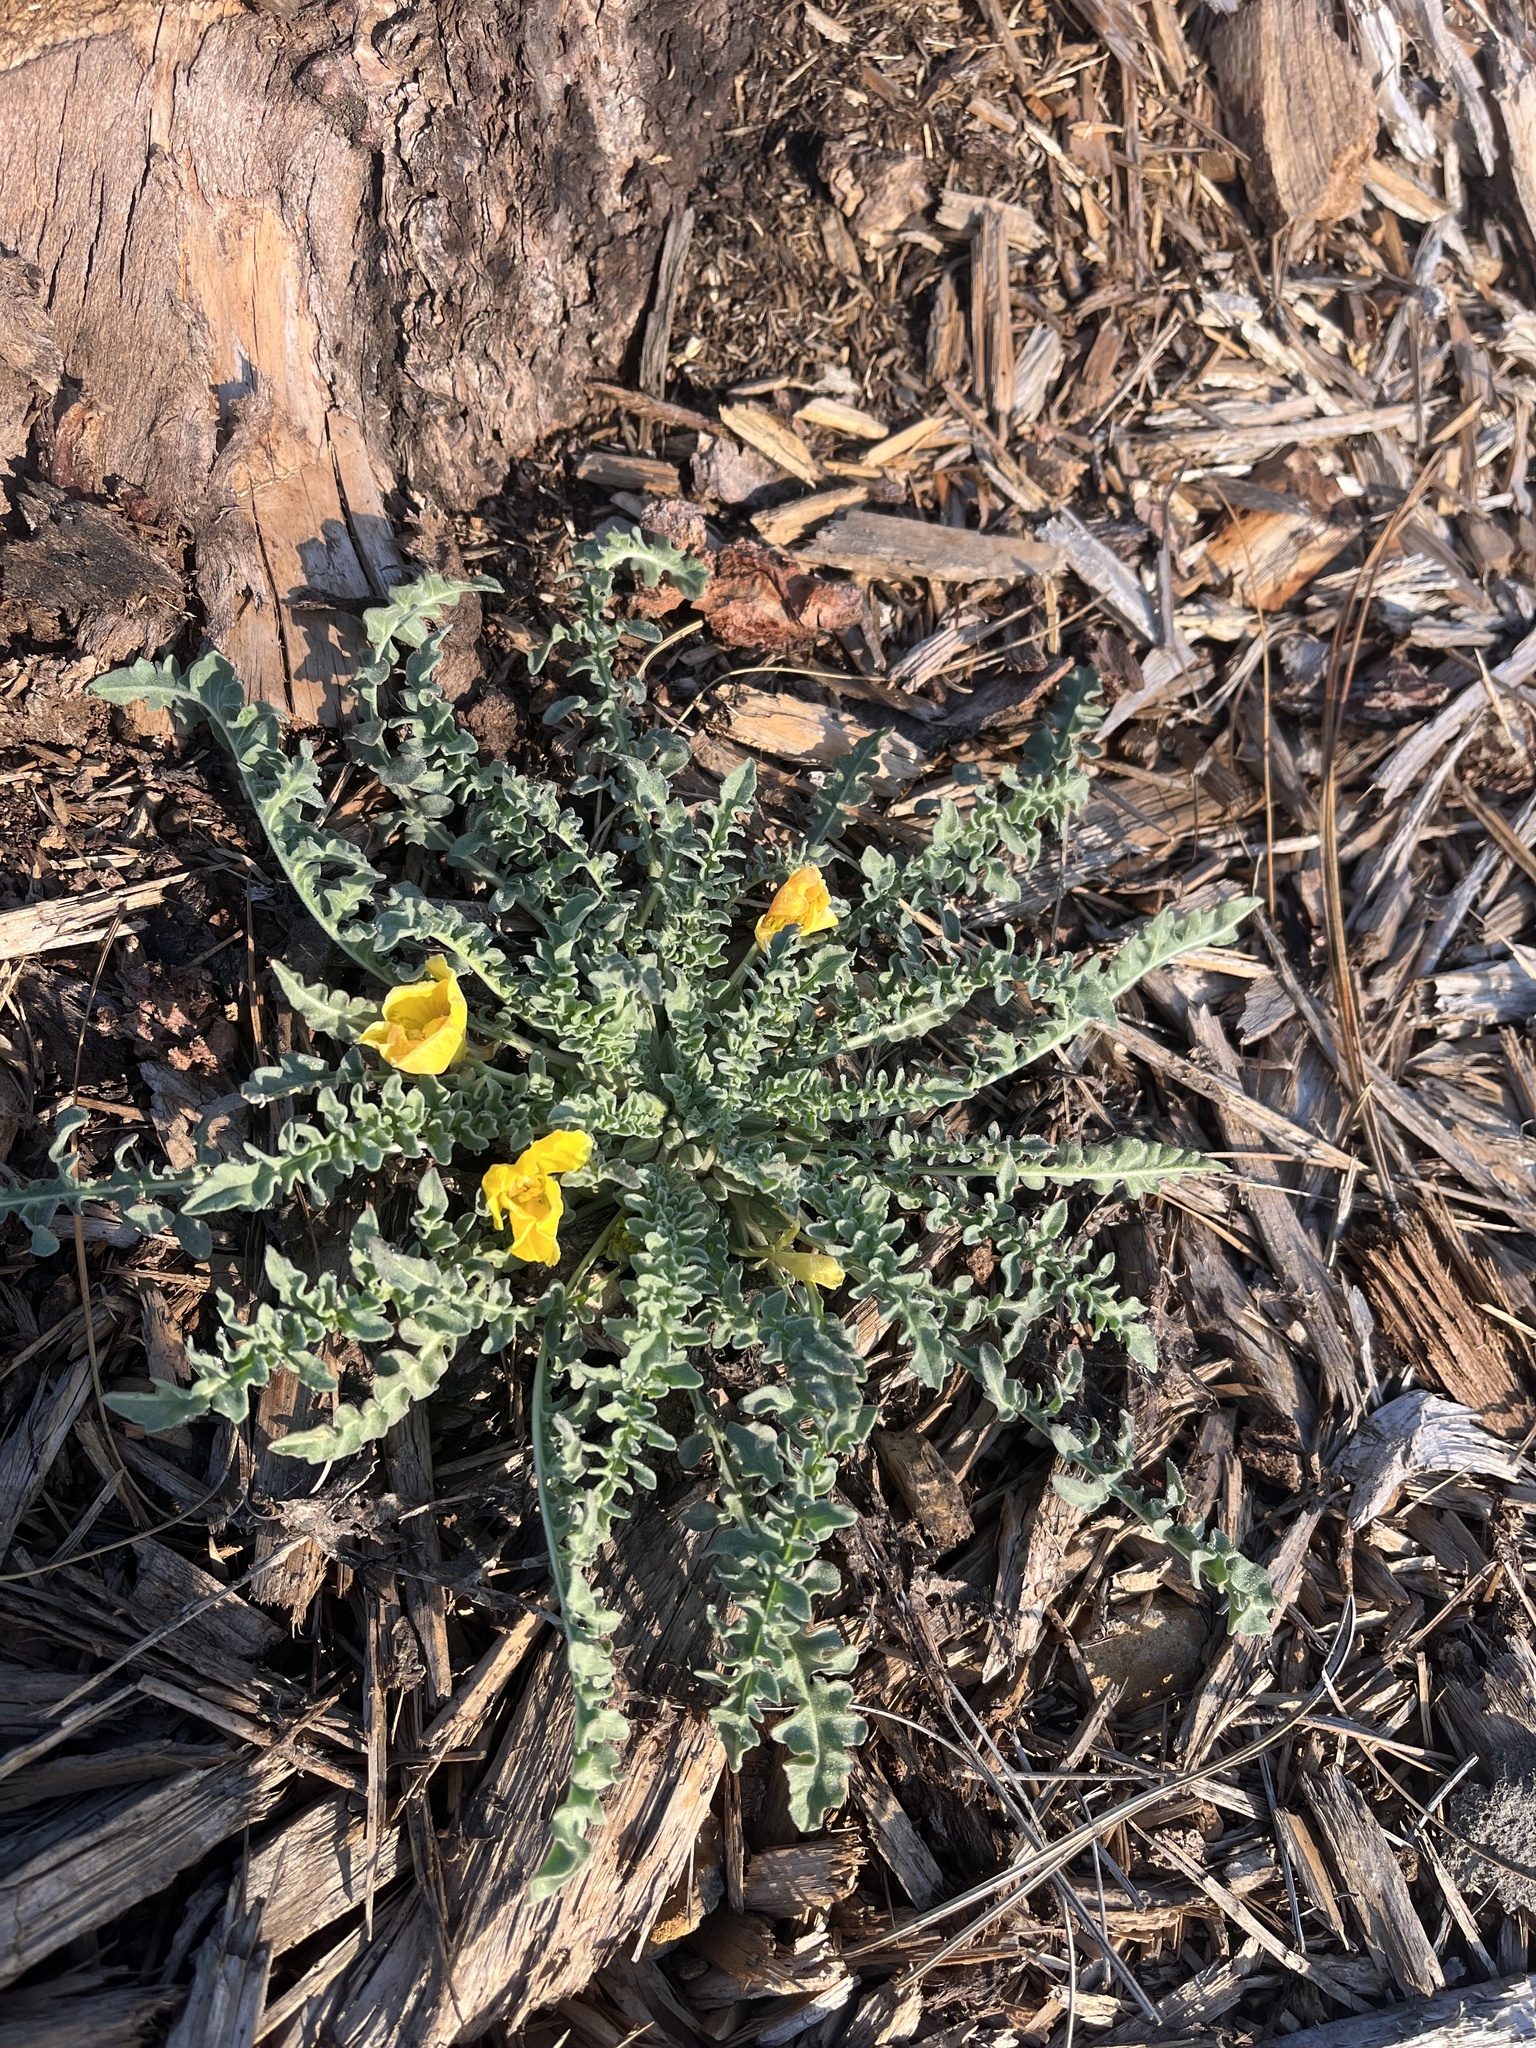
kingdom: Plantae
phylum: Tracheophyta
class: Magnoliopsida
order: Myrtales
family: Onagraceae
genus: Taraxia
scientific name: Taraxia tanacetifolia
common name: Tansyleaf evening primrose
